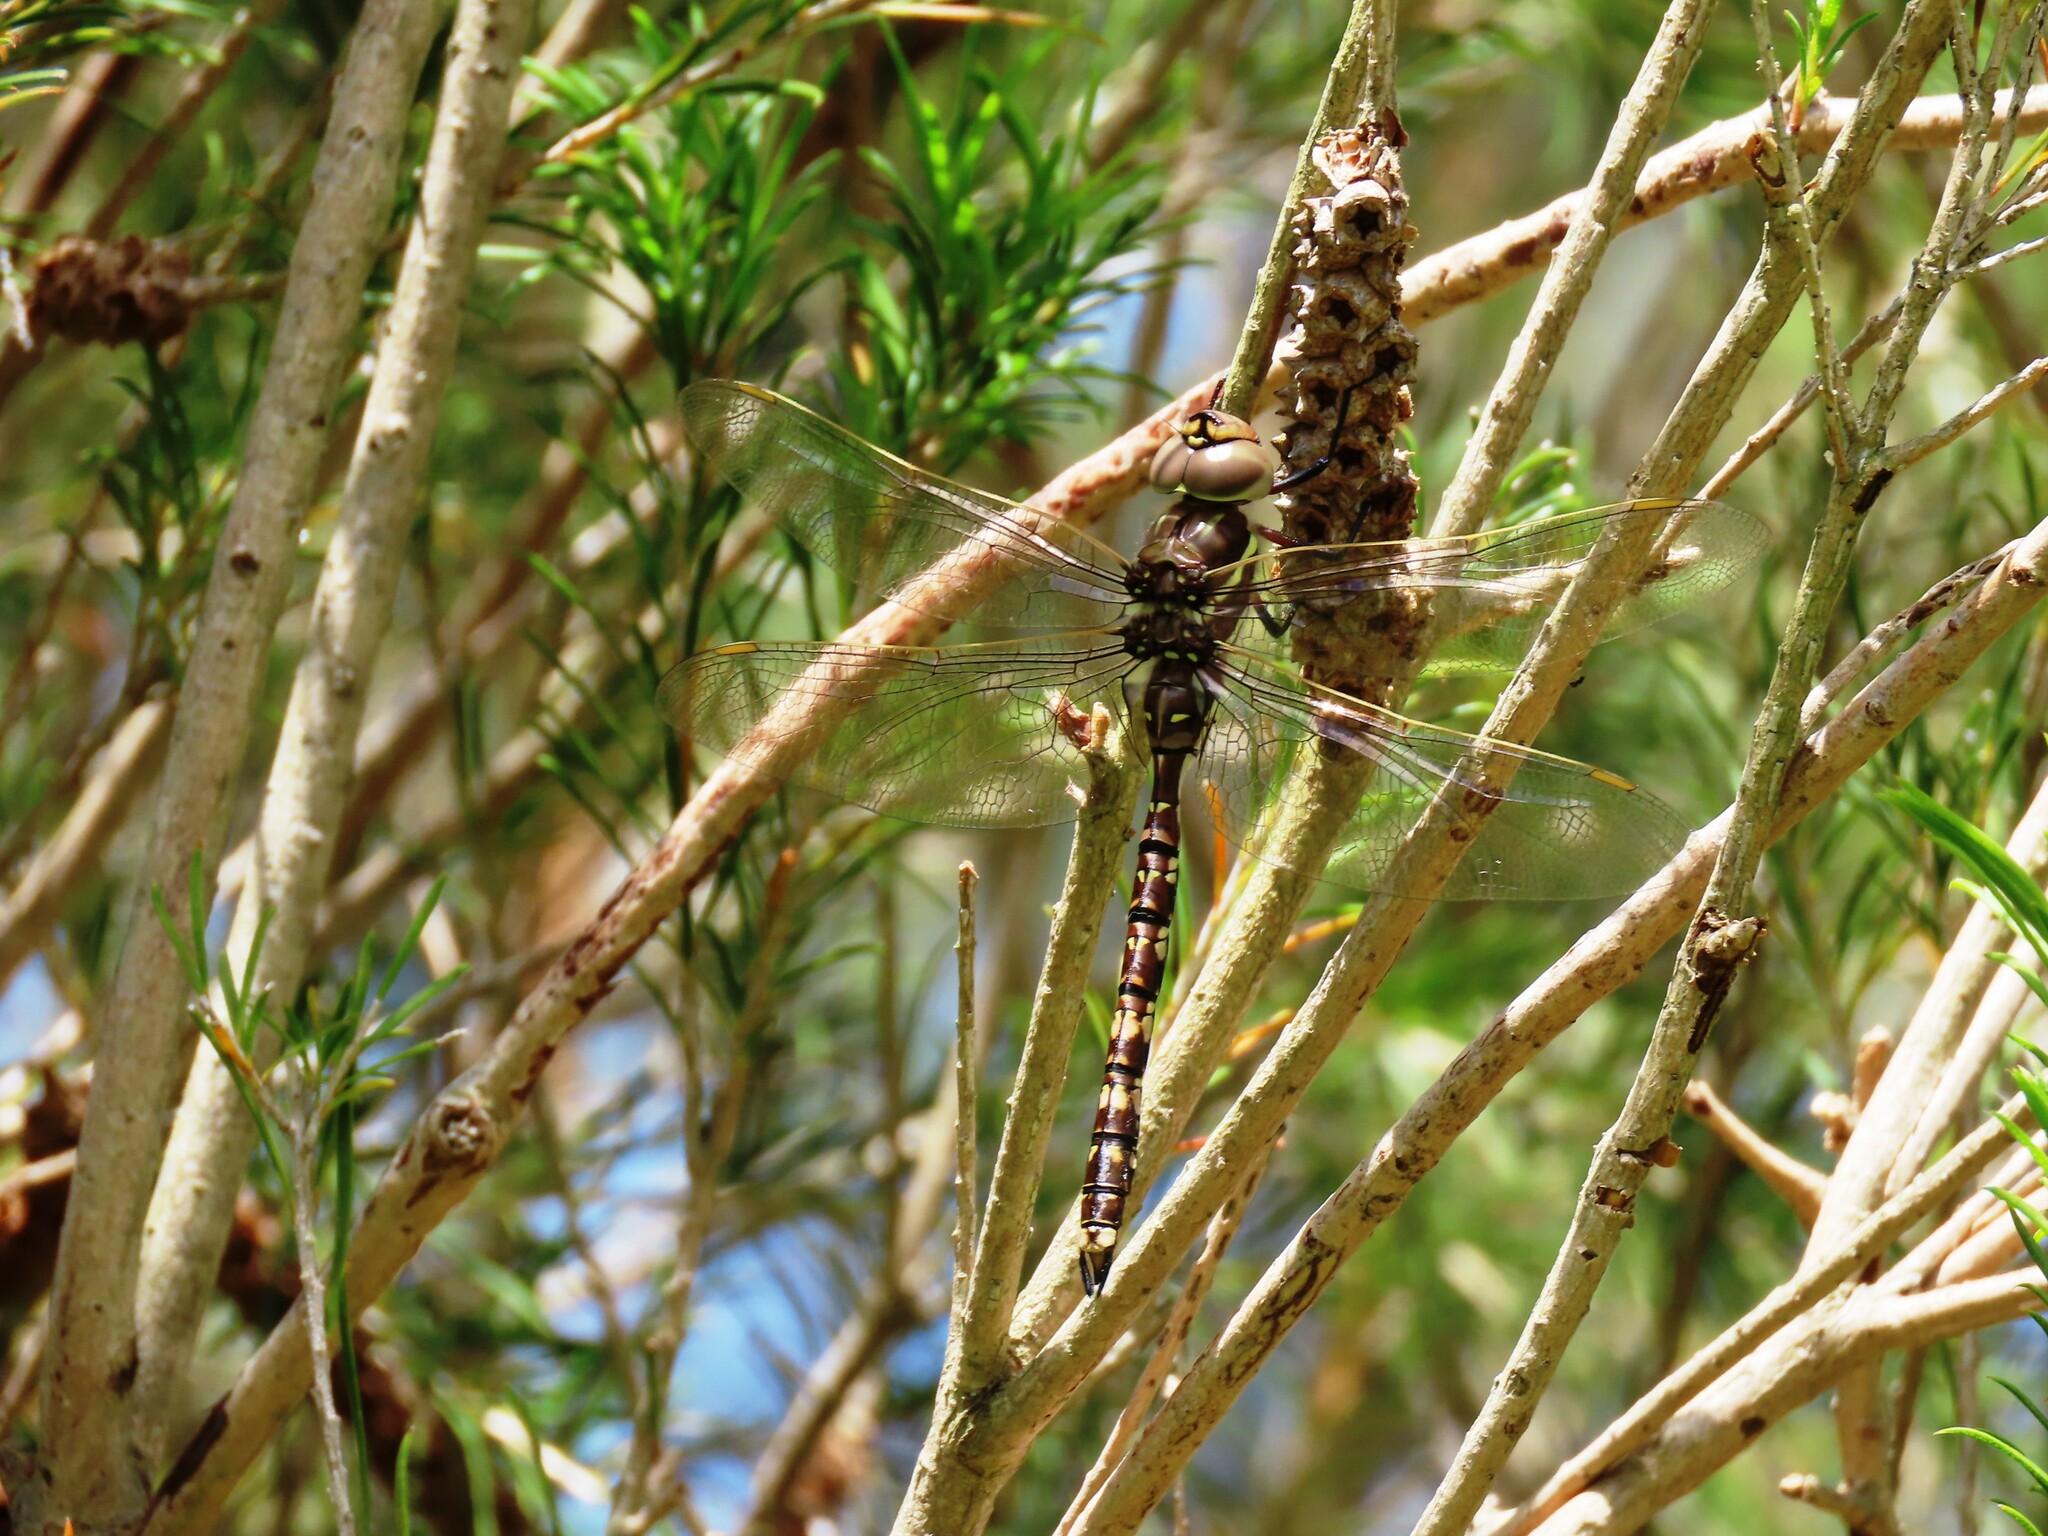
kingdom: Animalia
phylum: Arthropoda
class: Insecta
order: Odonata
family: Aeshnidae
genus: Aeshna
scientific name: Aeshna brevistyla
